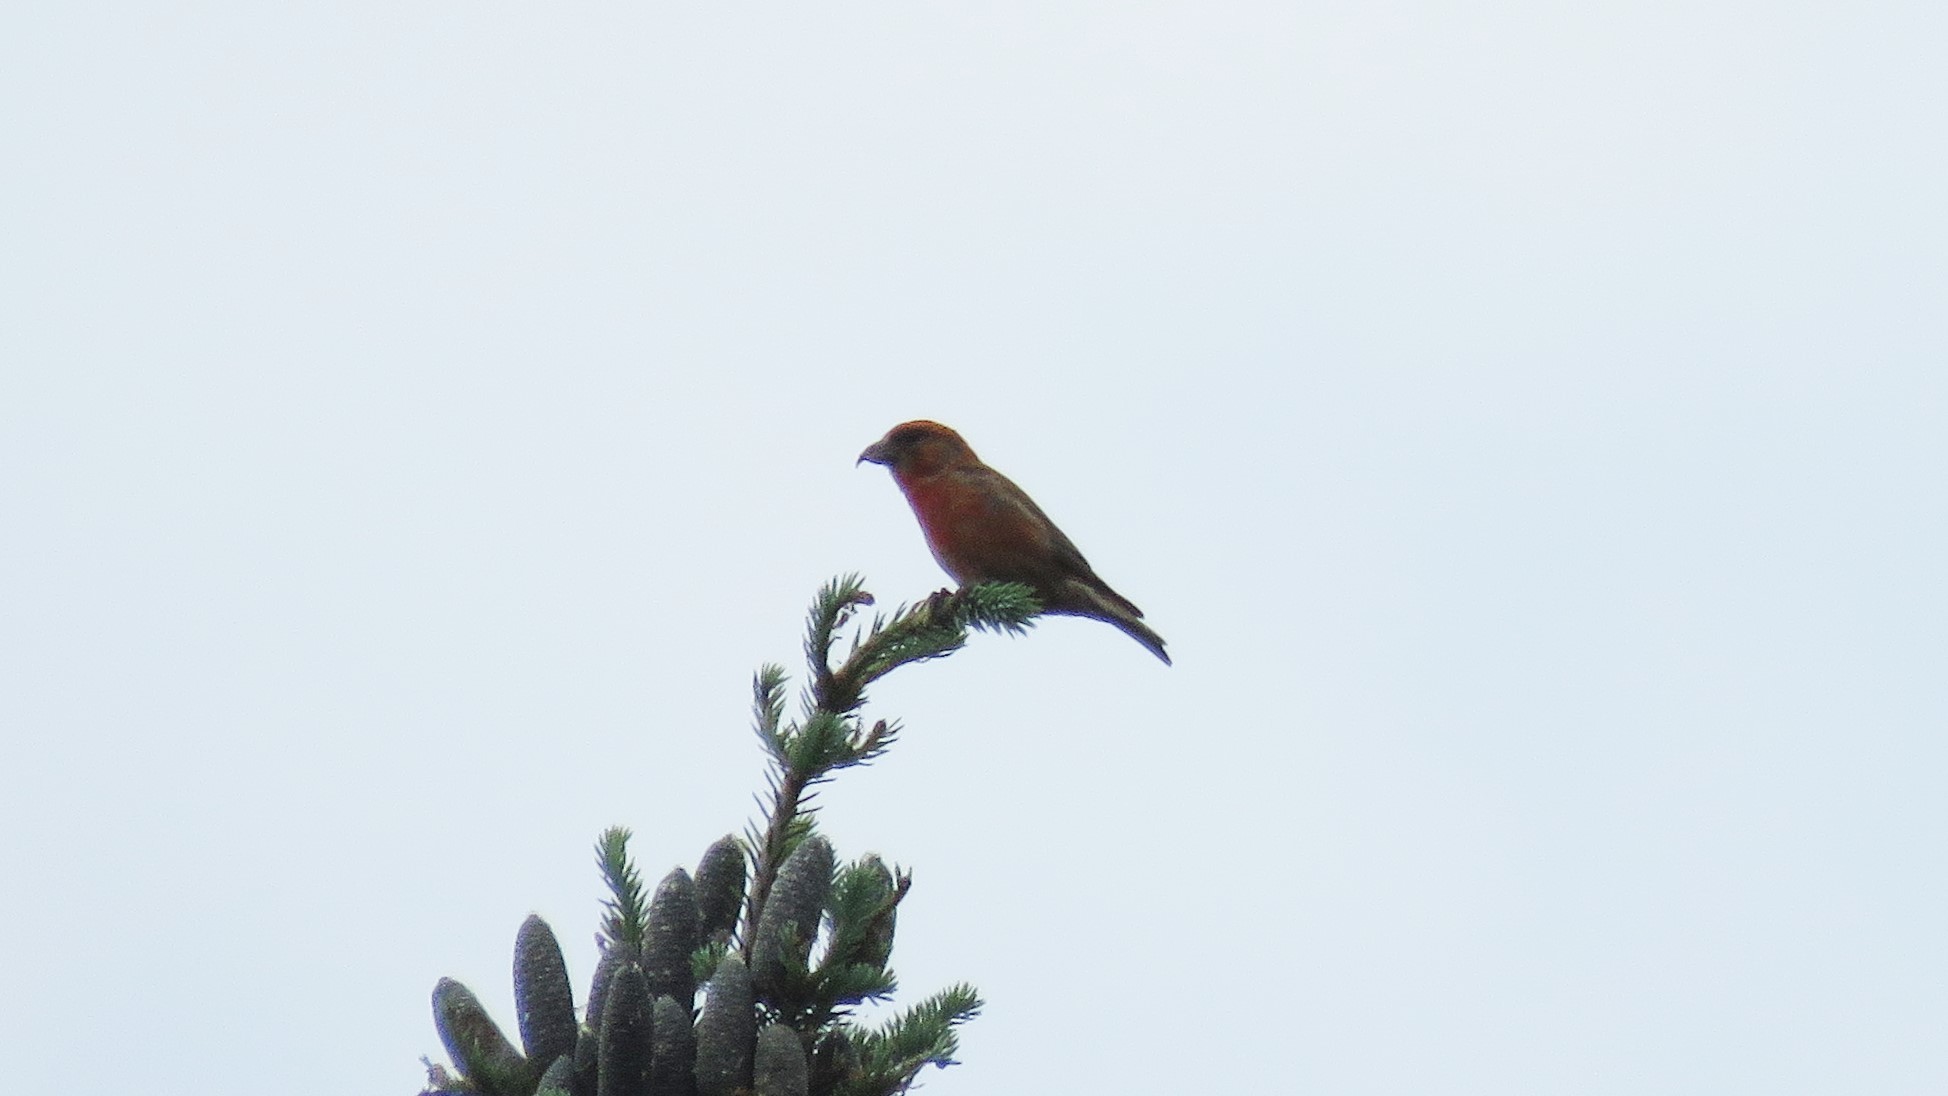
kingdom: Animalia
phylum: Chordata
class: Aves
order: Passeriformes
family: Fringillidae
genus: Loxia
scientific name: Loxia curvirostra
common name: Red crossbill
